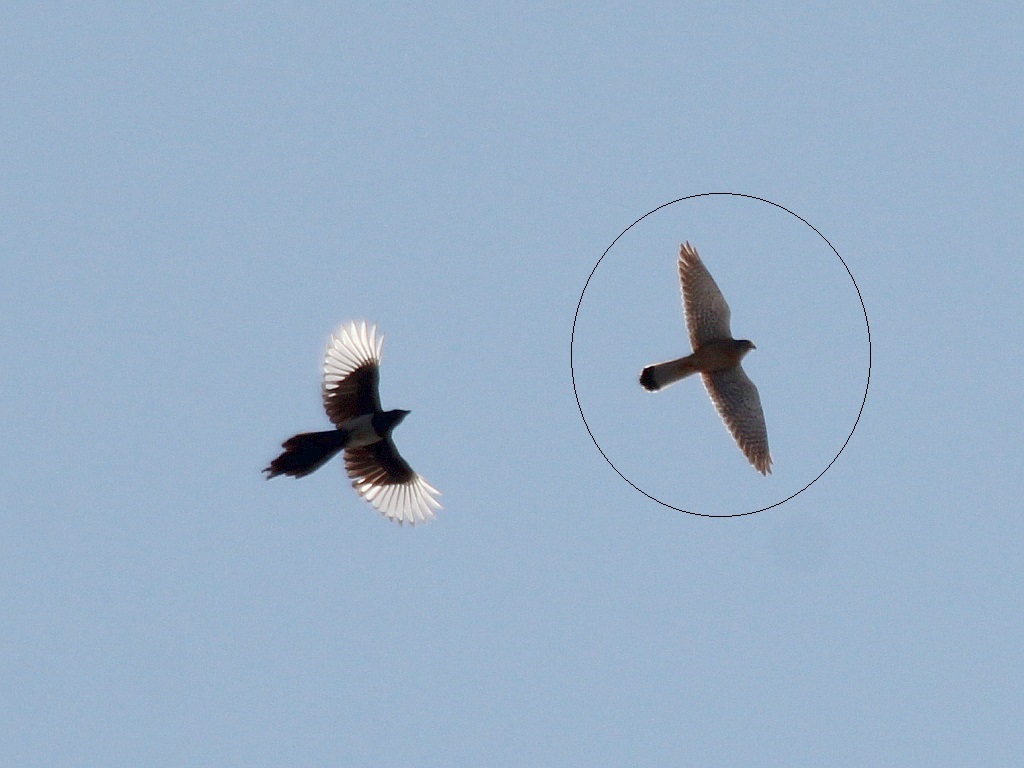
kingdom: Animalia
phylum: Chordata
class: Aves
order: Falconiformes
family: Falconidae
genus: Falco
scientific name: Falco tinnunculus
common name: Common kestrel
